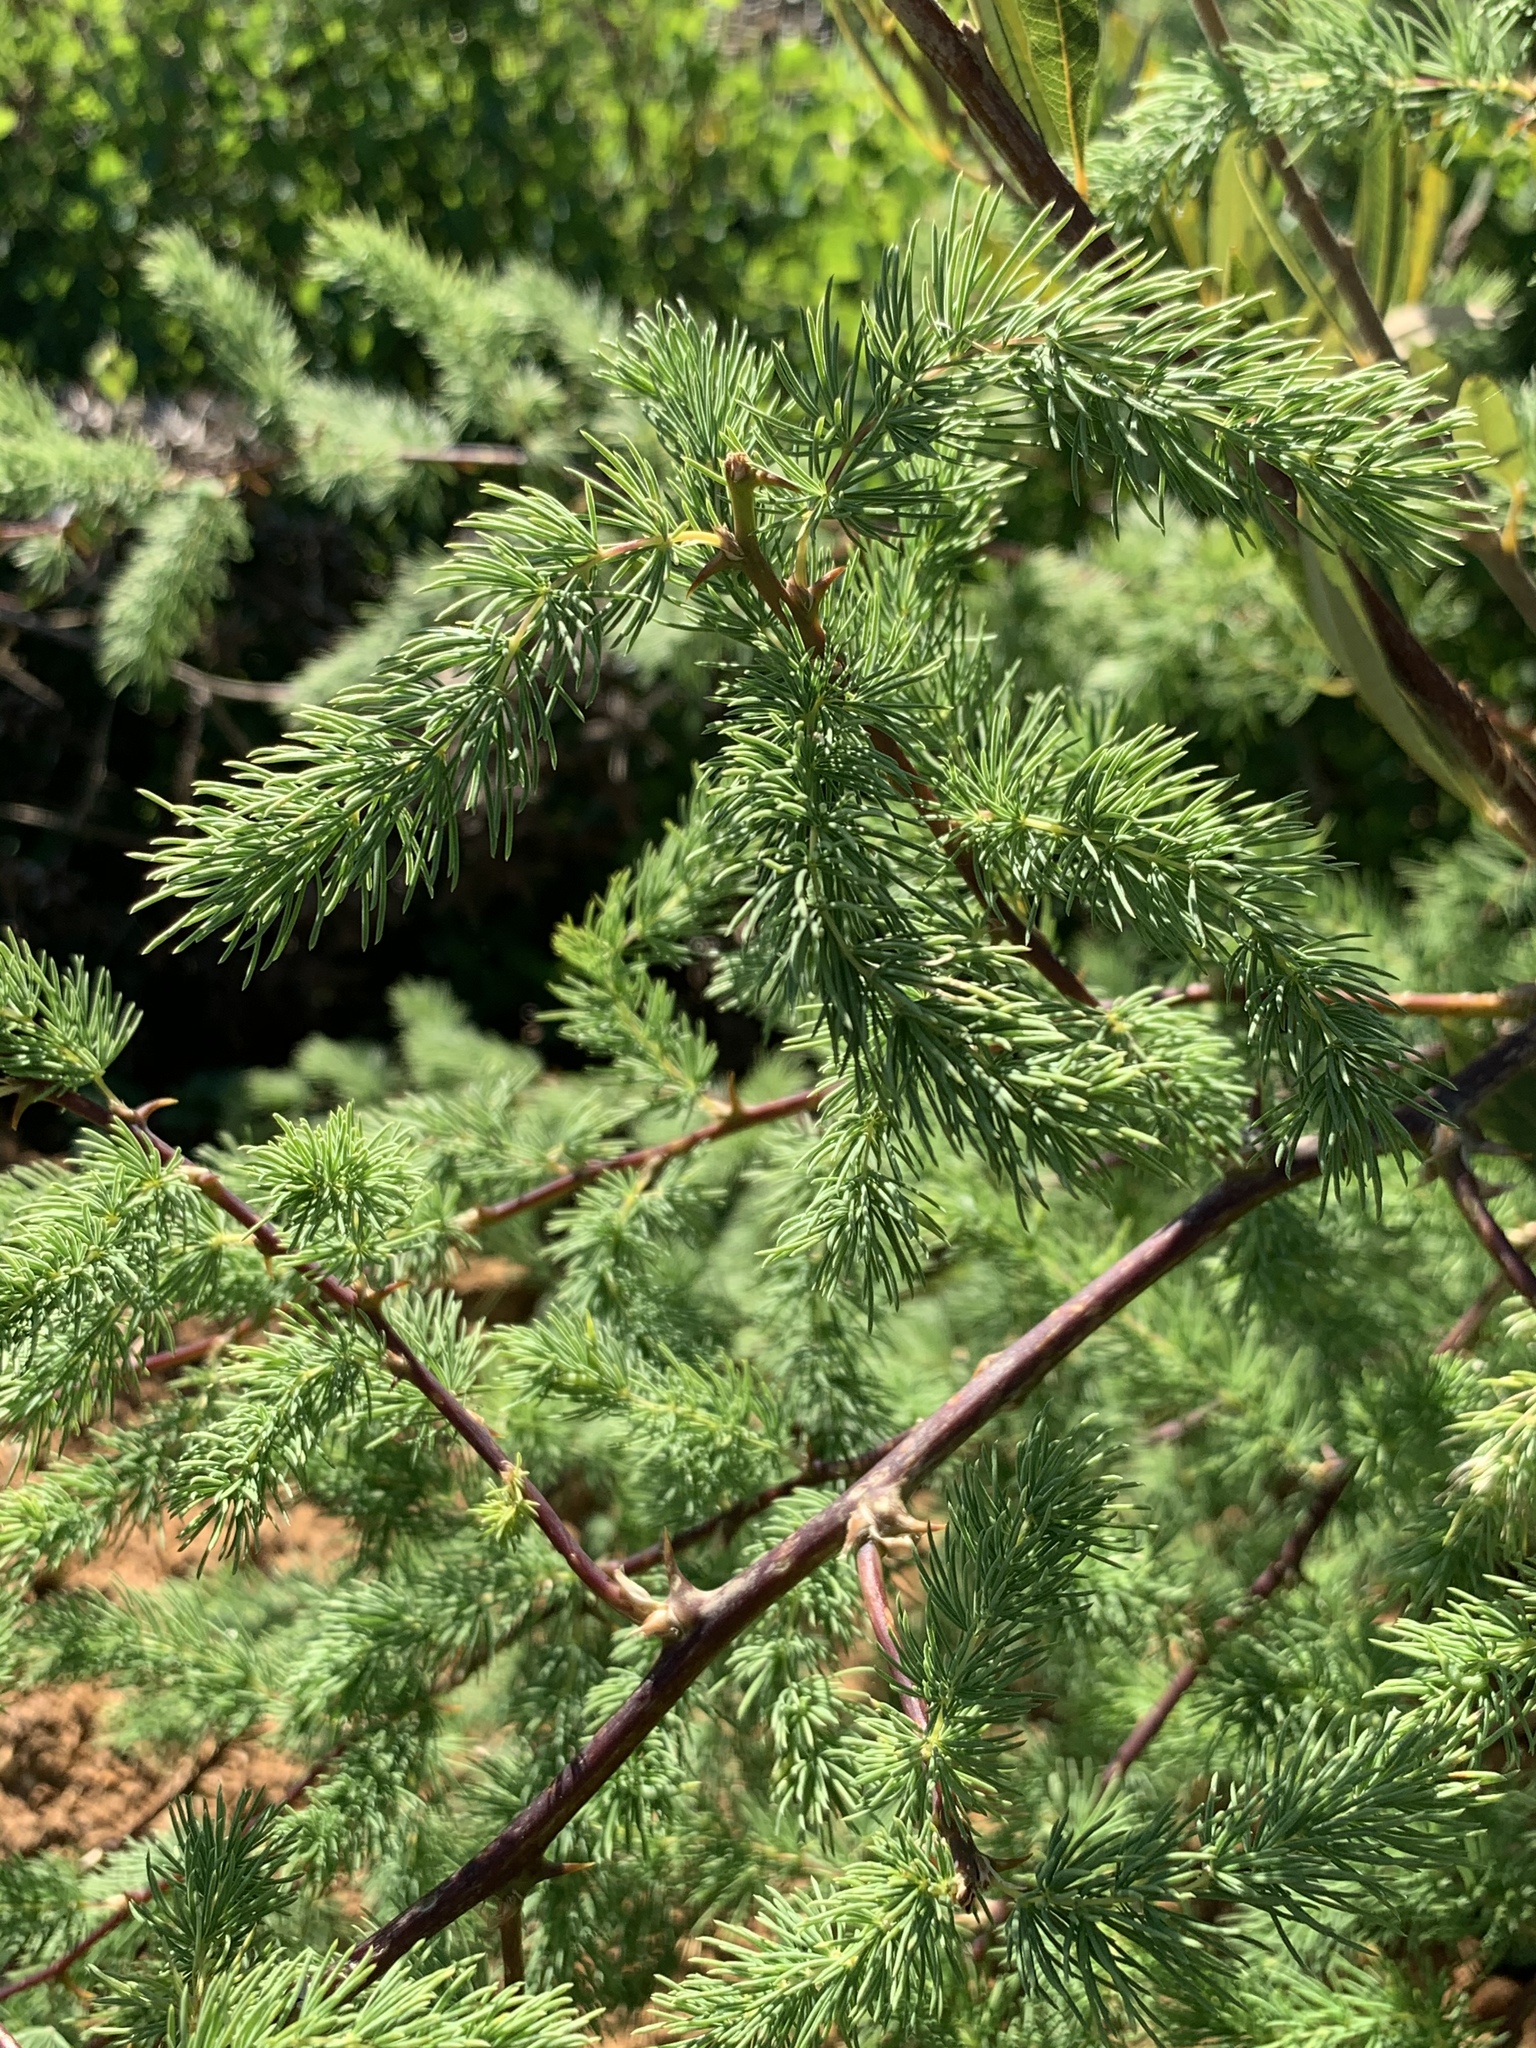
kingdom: Plantae
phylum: Tracheophyta
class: Liliopsida
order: Asparagales
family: Asparagaceae
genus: Asparagus
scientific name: Asparagus rubicundus
